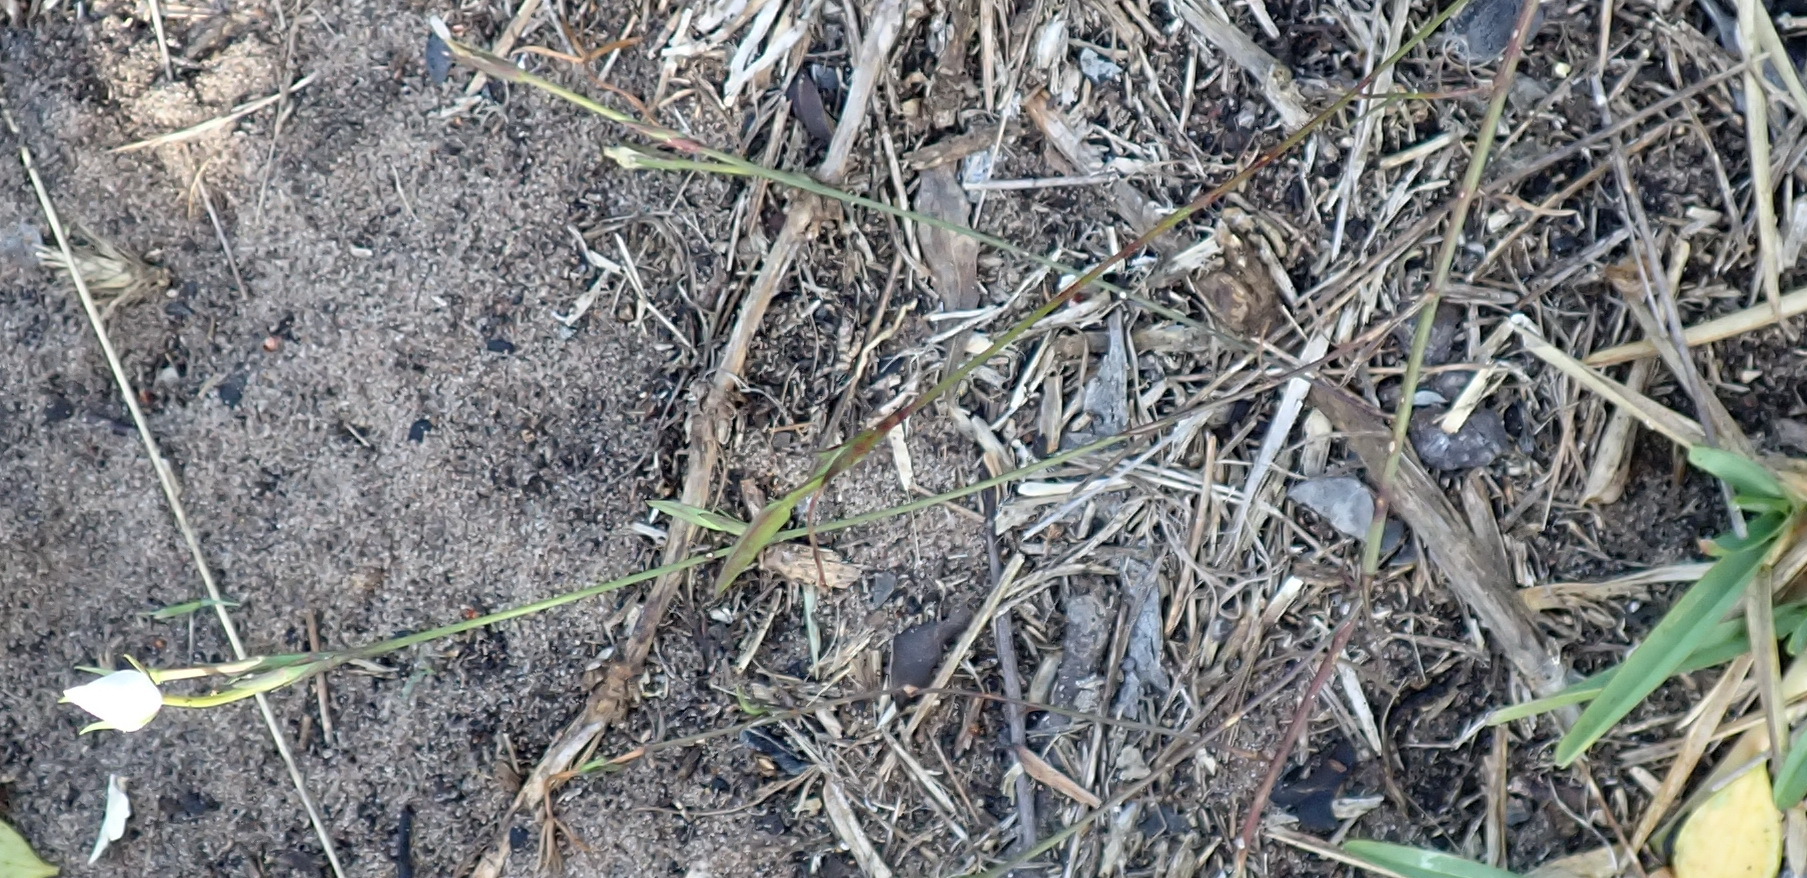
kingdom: Plantae
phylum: Tracheophyta
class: Magnoliopsida
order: Asterales
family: Campanulaceae
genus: Prismatocarpus
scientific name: Prismatocarpus campanuloides
